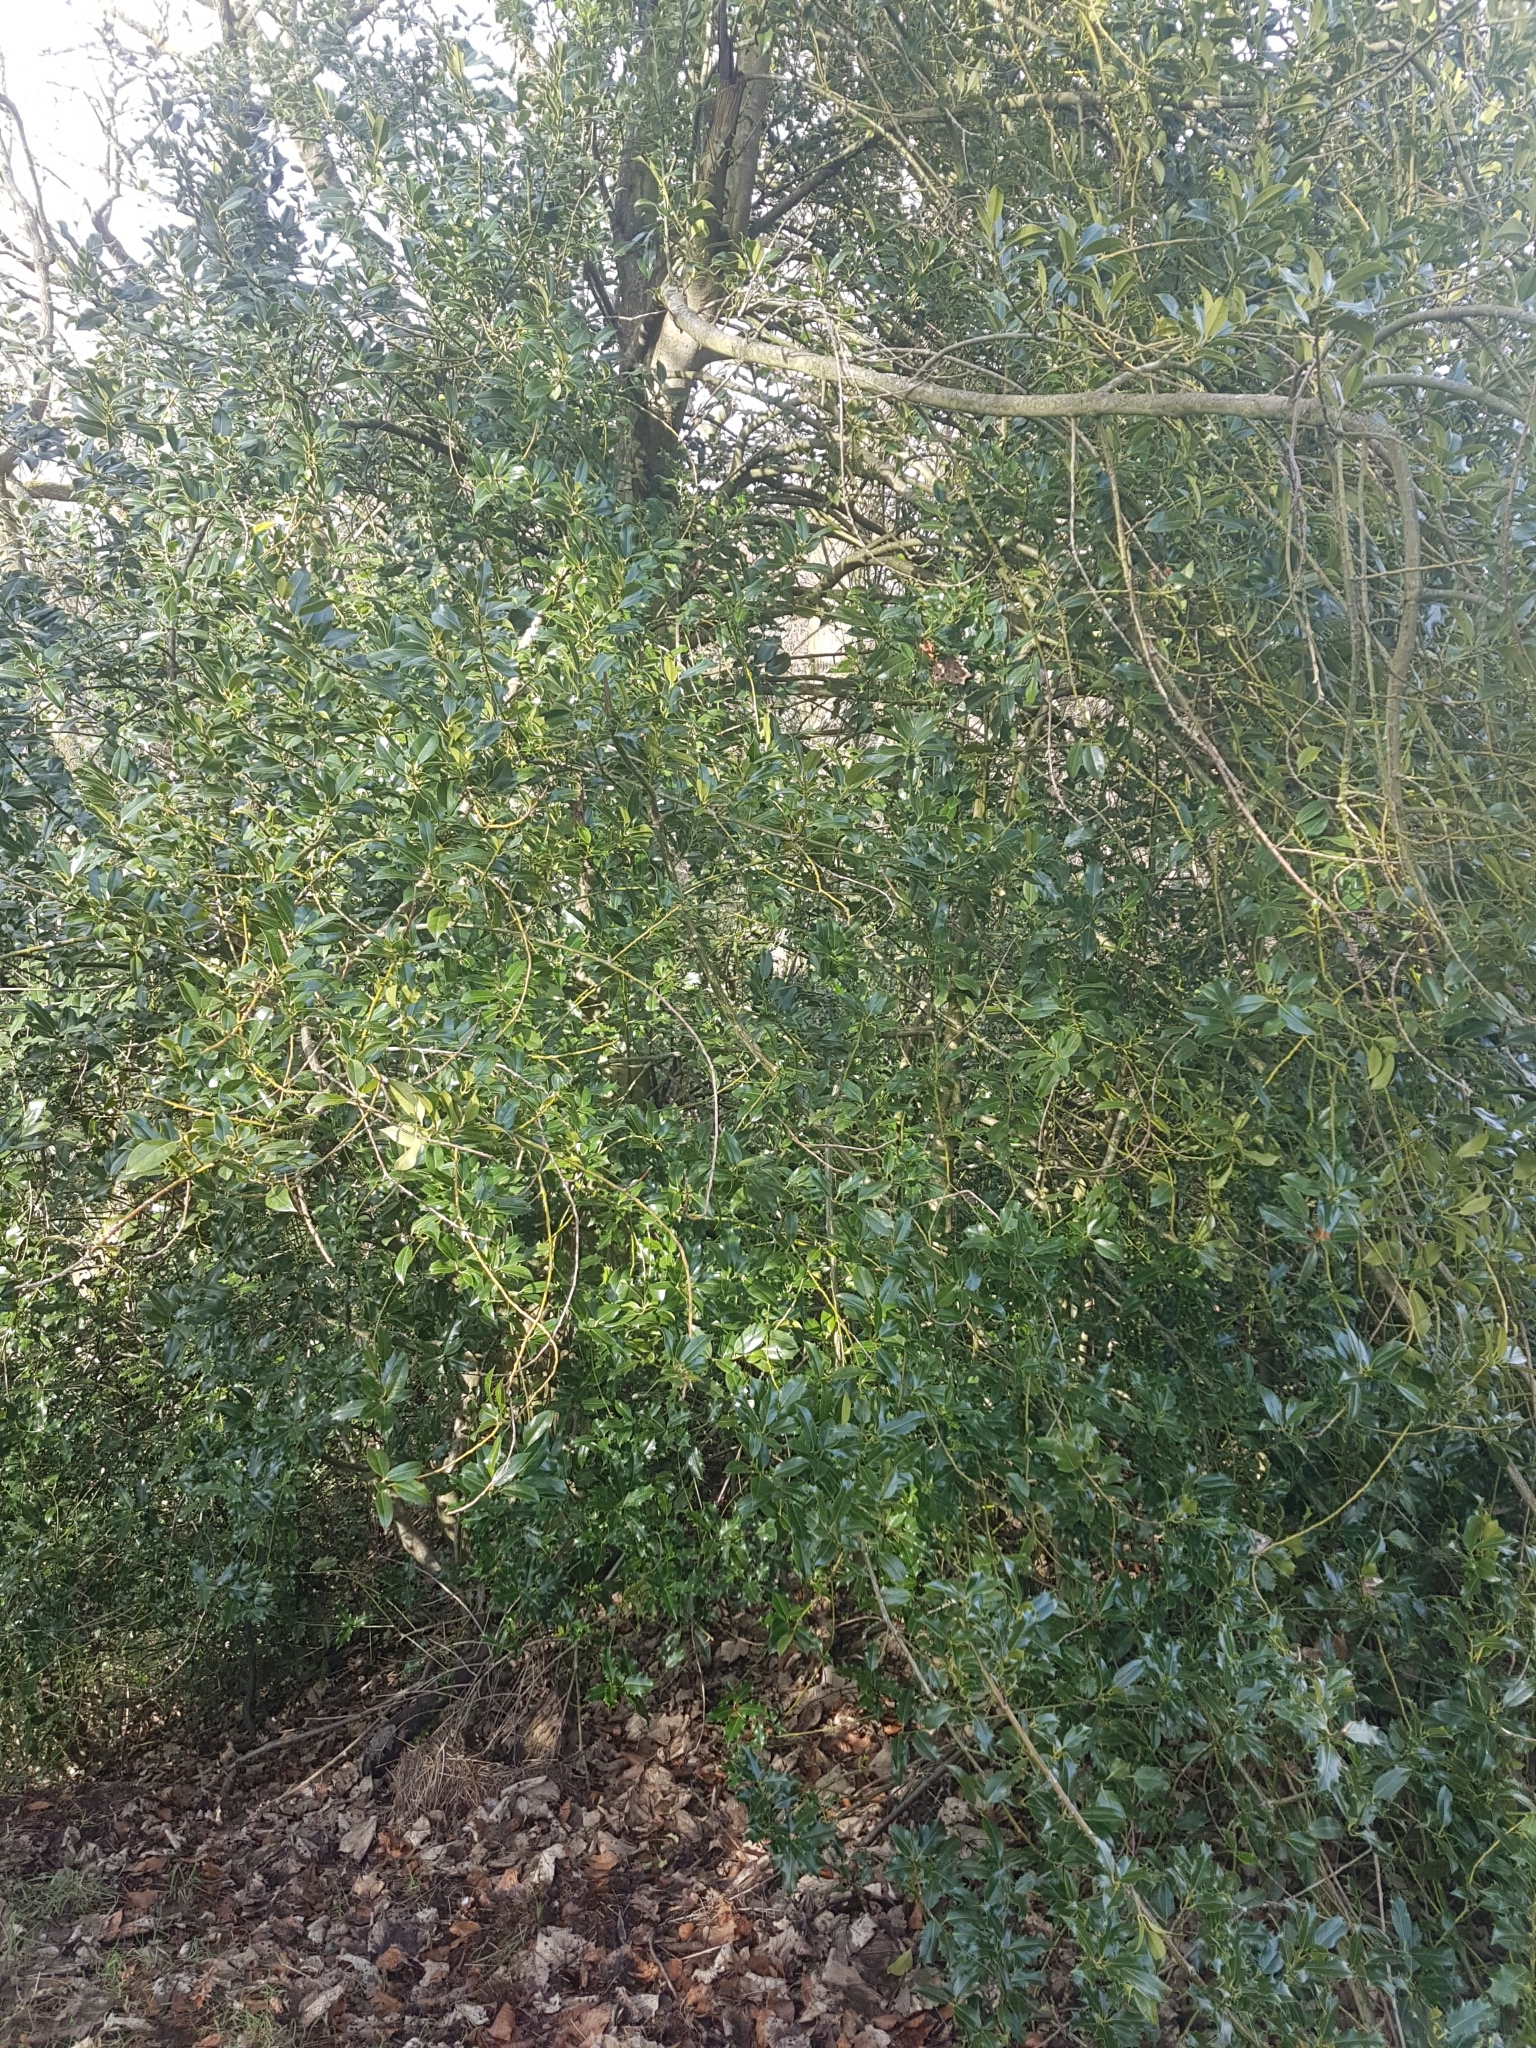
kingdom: Plantae
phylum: Tracheophyta
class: Magnoliopsida
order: Aquifoliales
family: Aquifoliaceae
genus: Ilex
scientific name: Ilex aquifolium
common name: English holly
